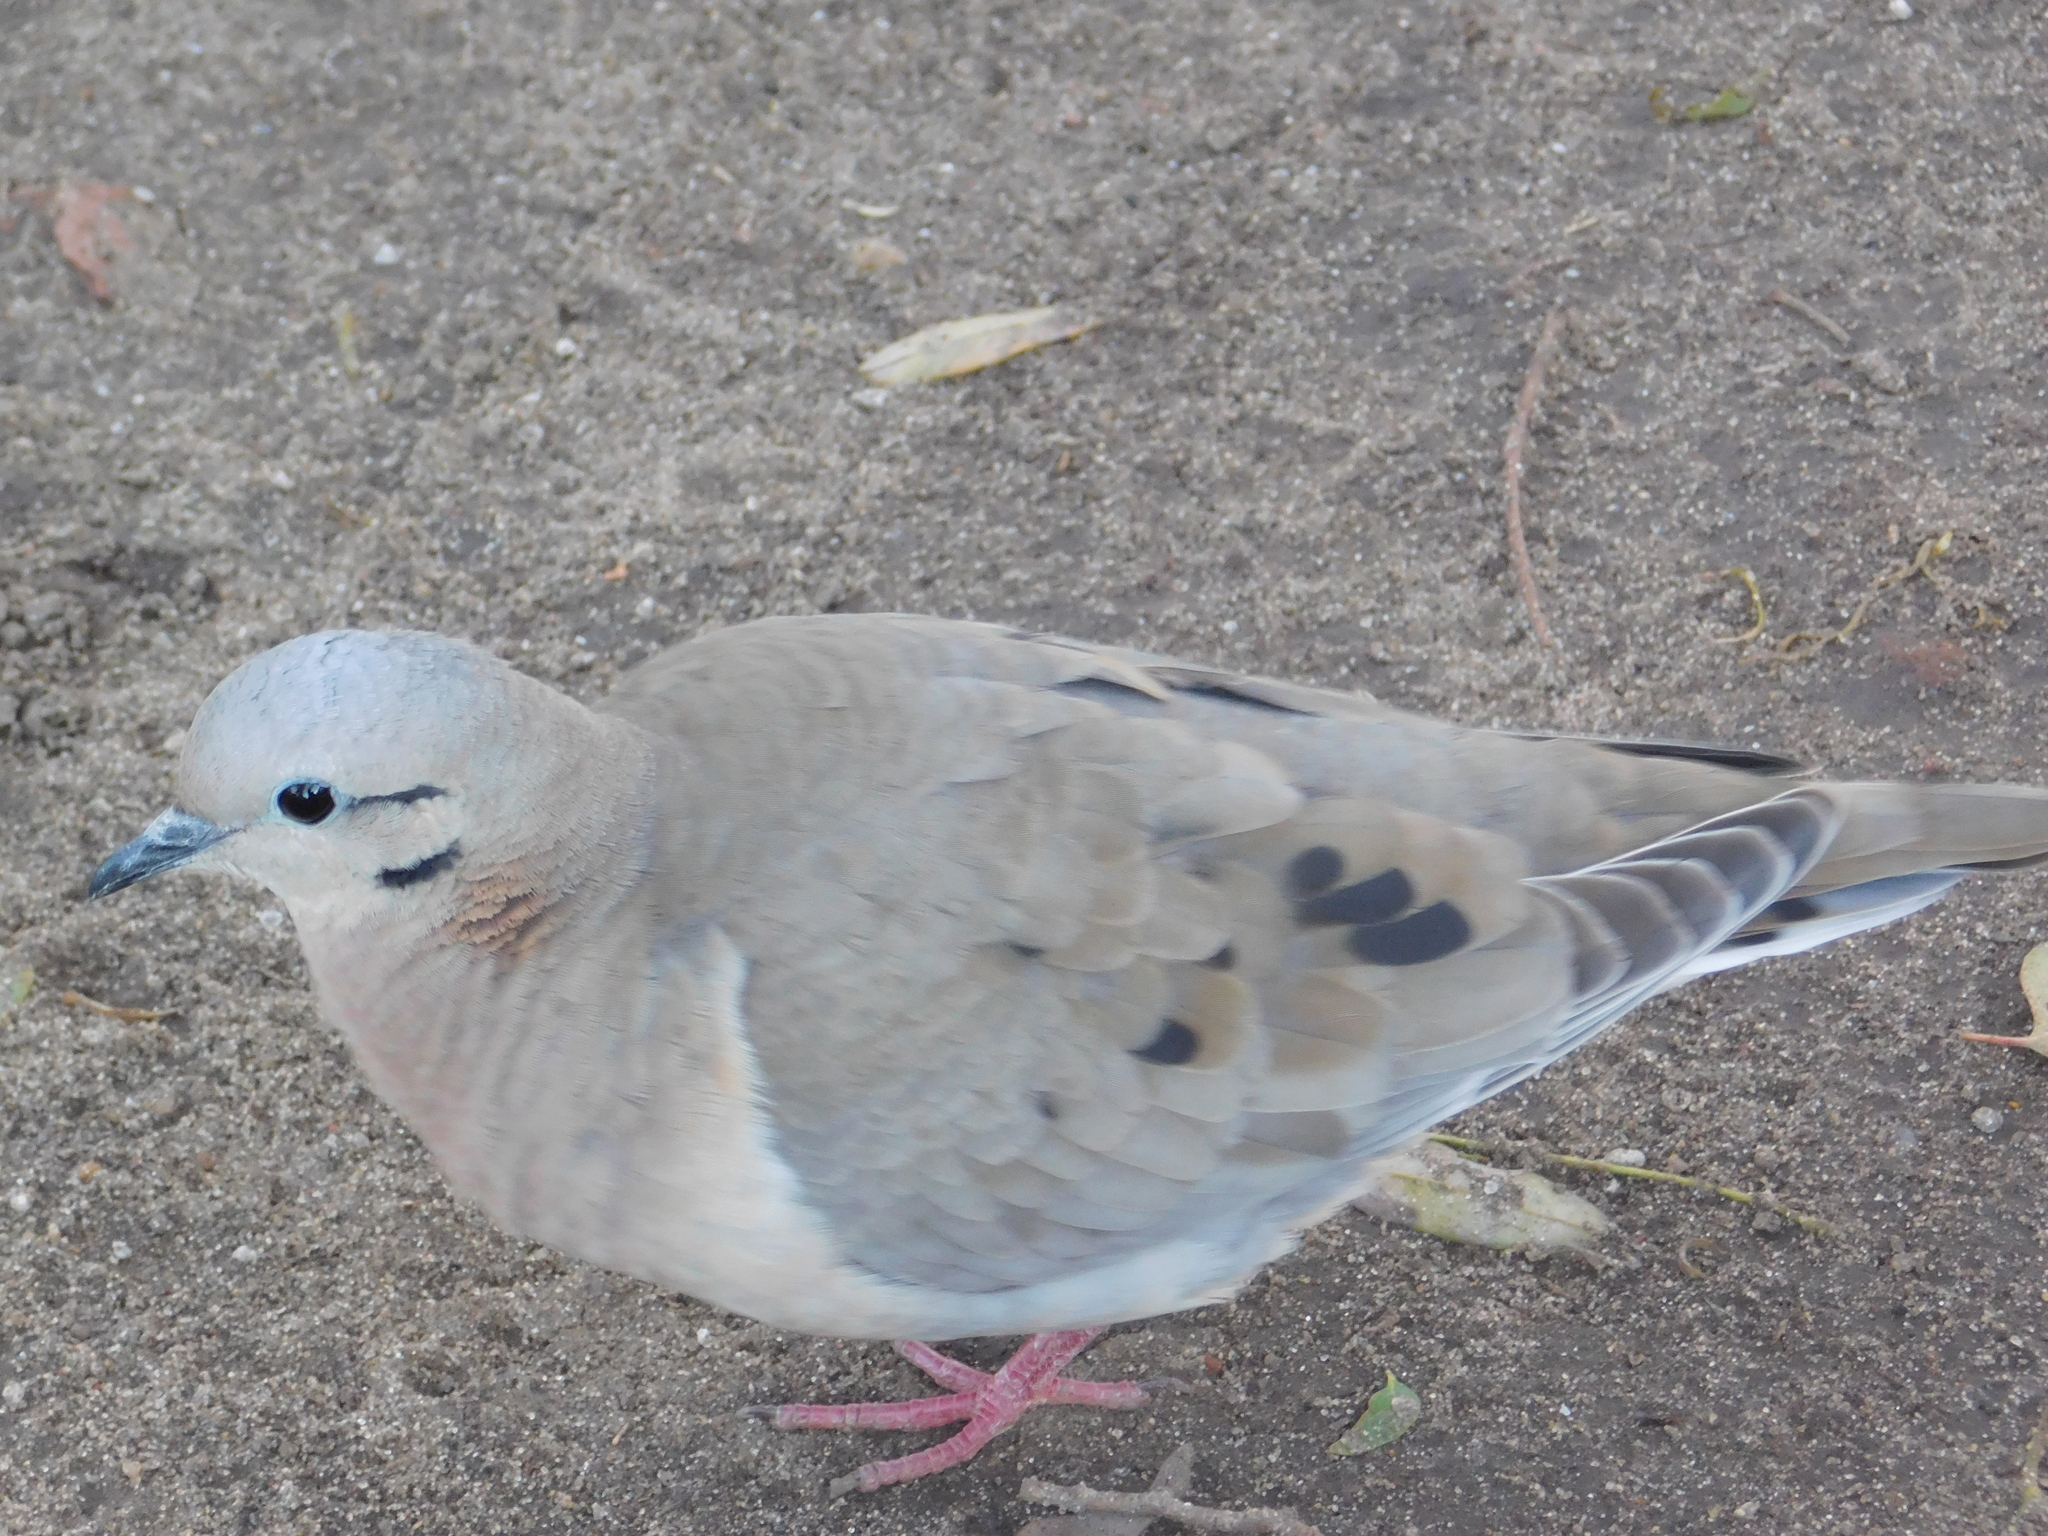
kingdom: Animalia
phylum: Chordata
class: Aves
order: Columbiformes
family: Columbidae
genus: Zenaida
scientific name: Zenaida auriculata
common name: Eared dove
